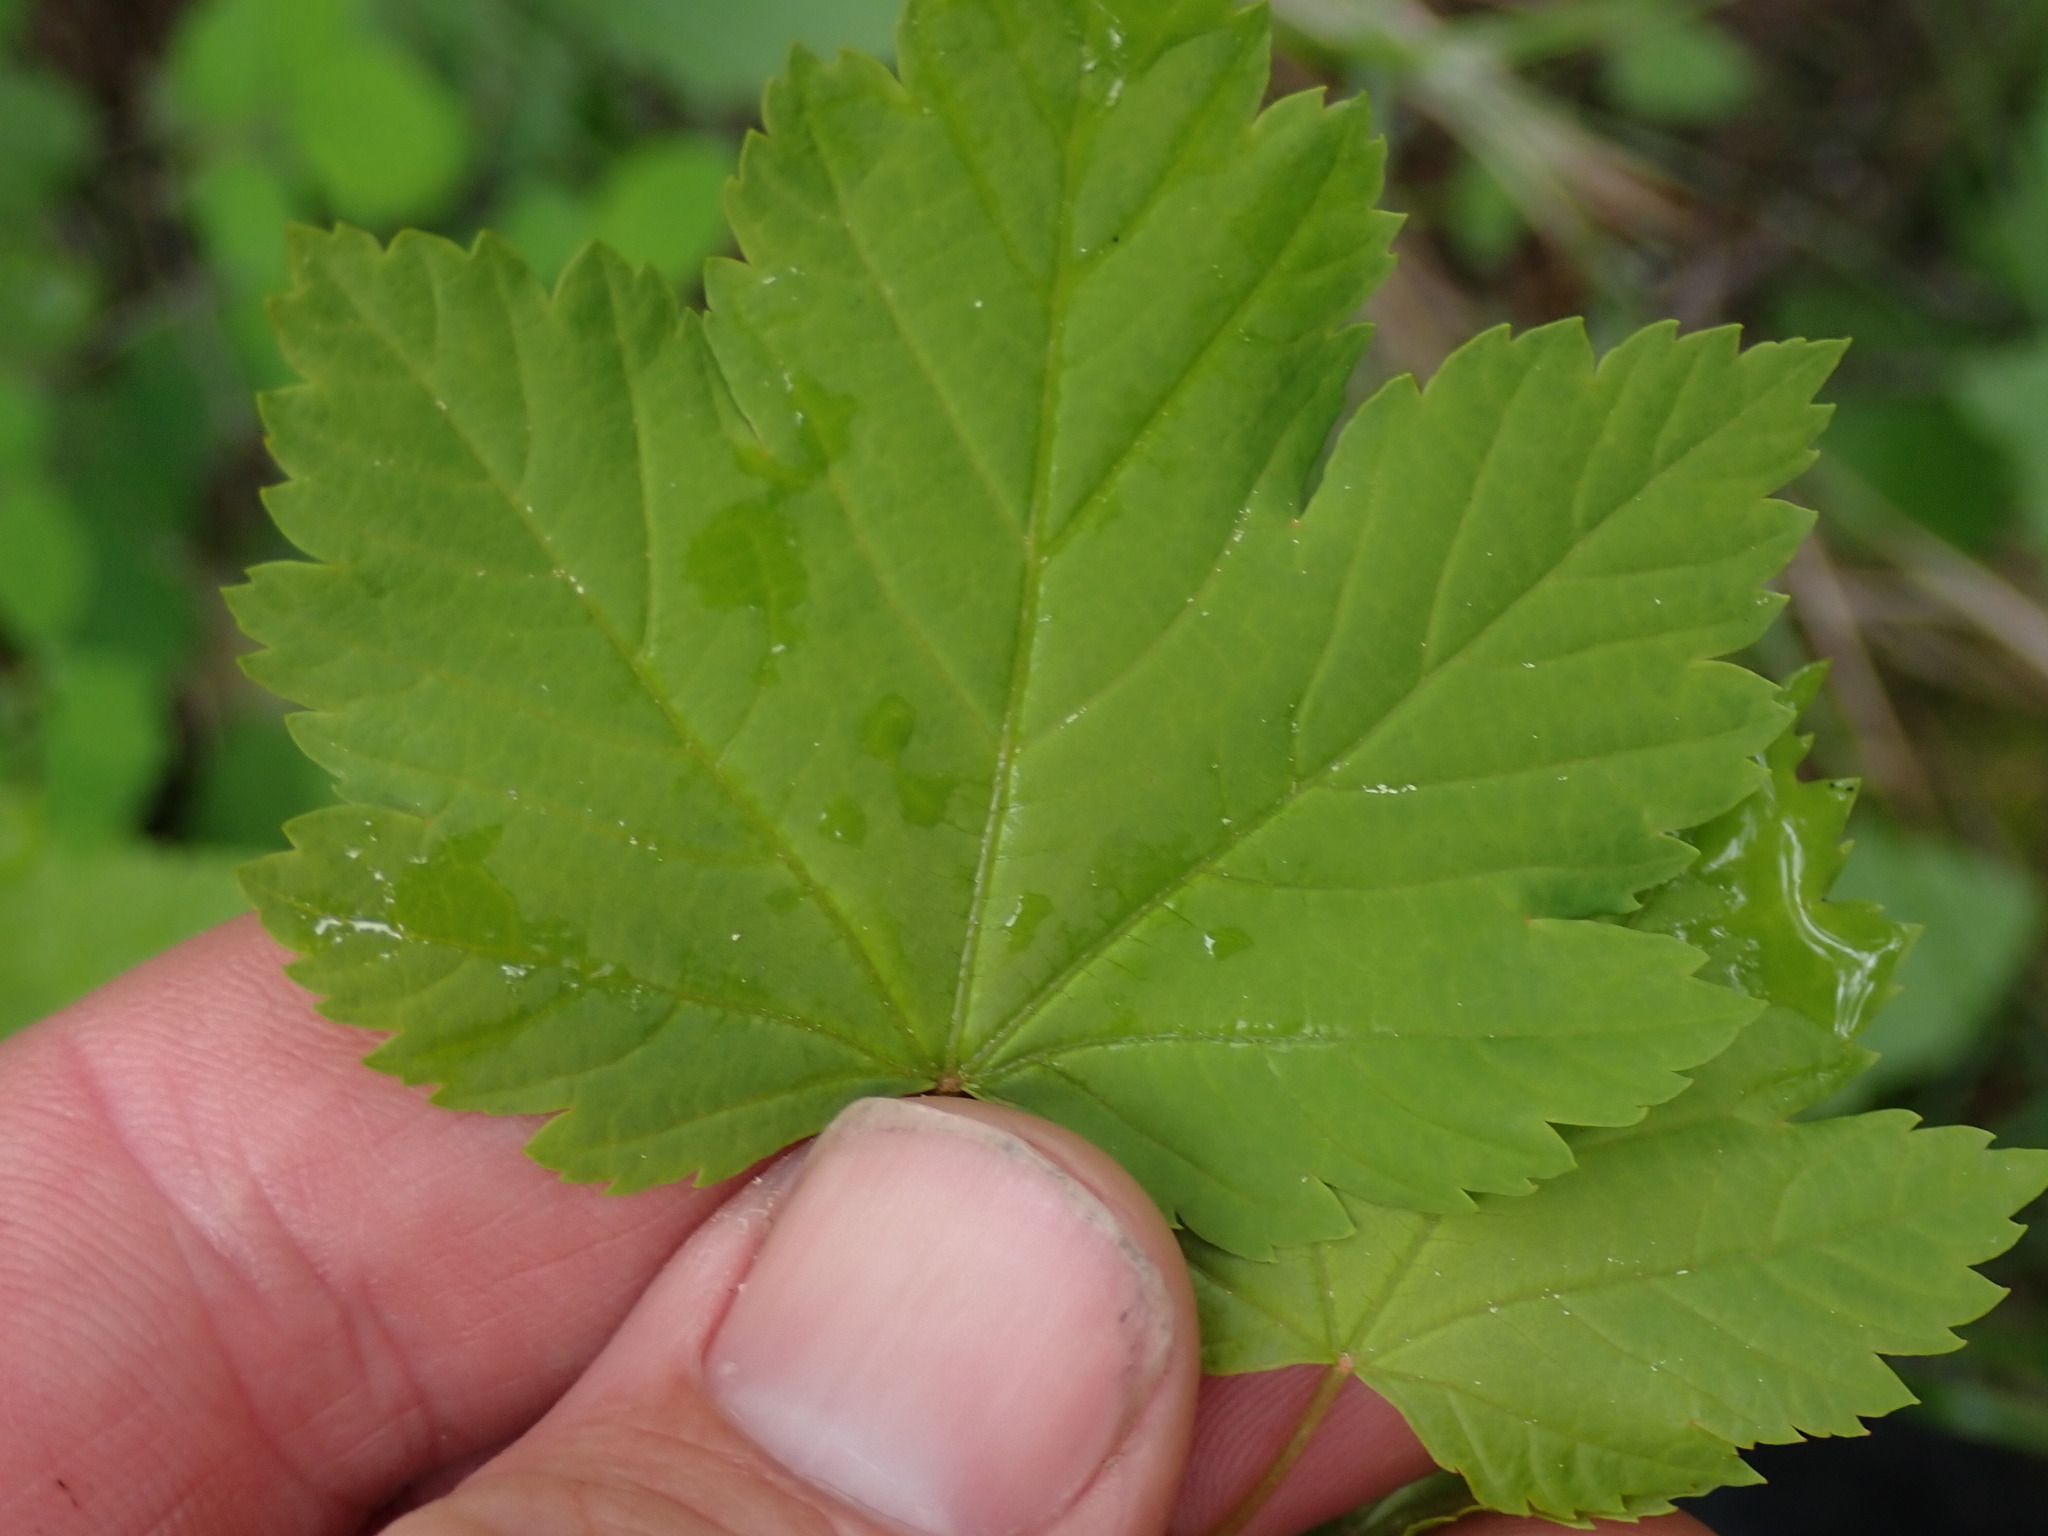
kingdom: Plantae
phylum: Tracheophyta
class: Magnoliopsida
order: Sapindales
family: Sapindaceae
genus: Acer
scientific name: Acer glabrum
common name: Rocky mountain maple
